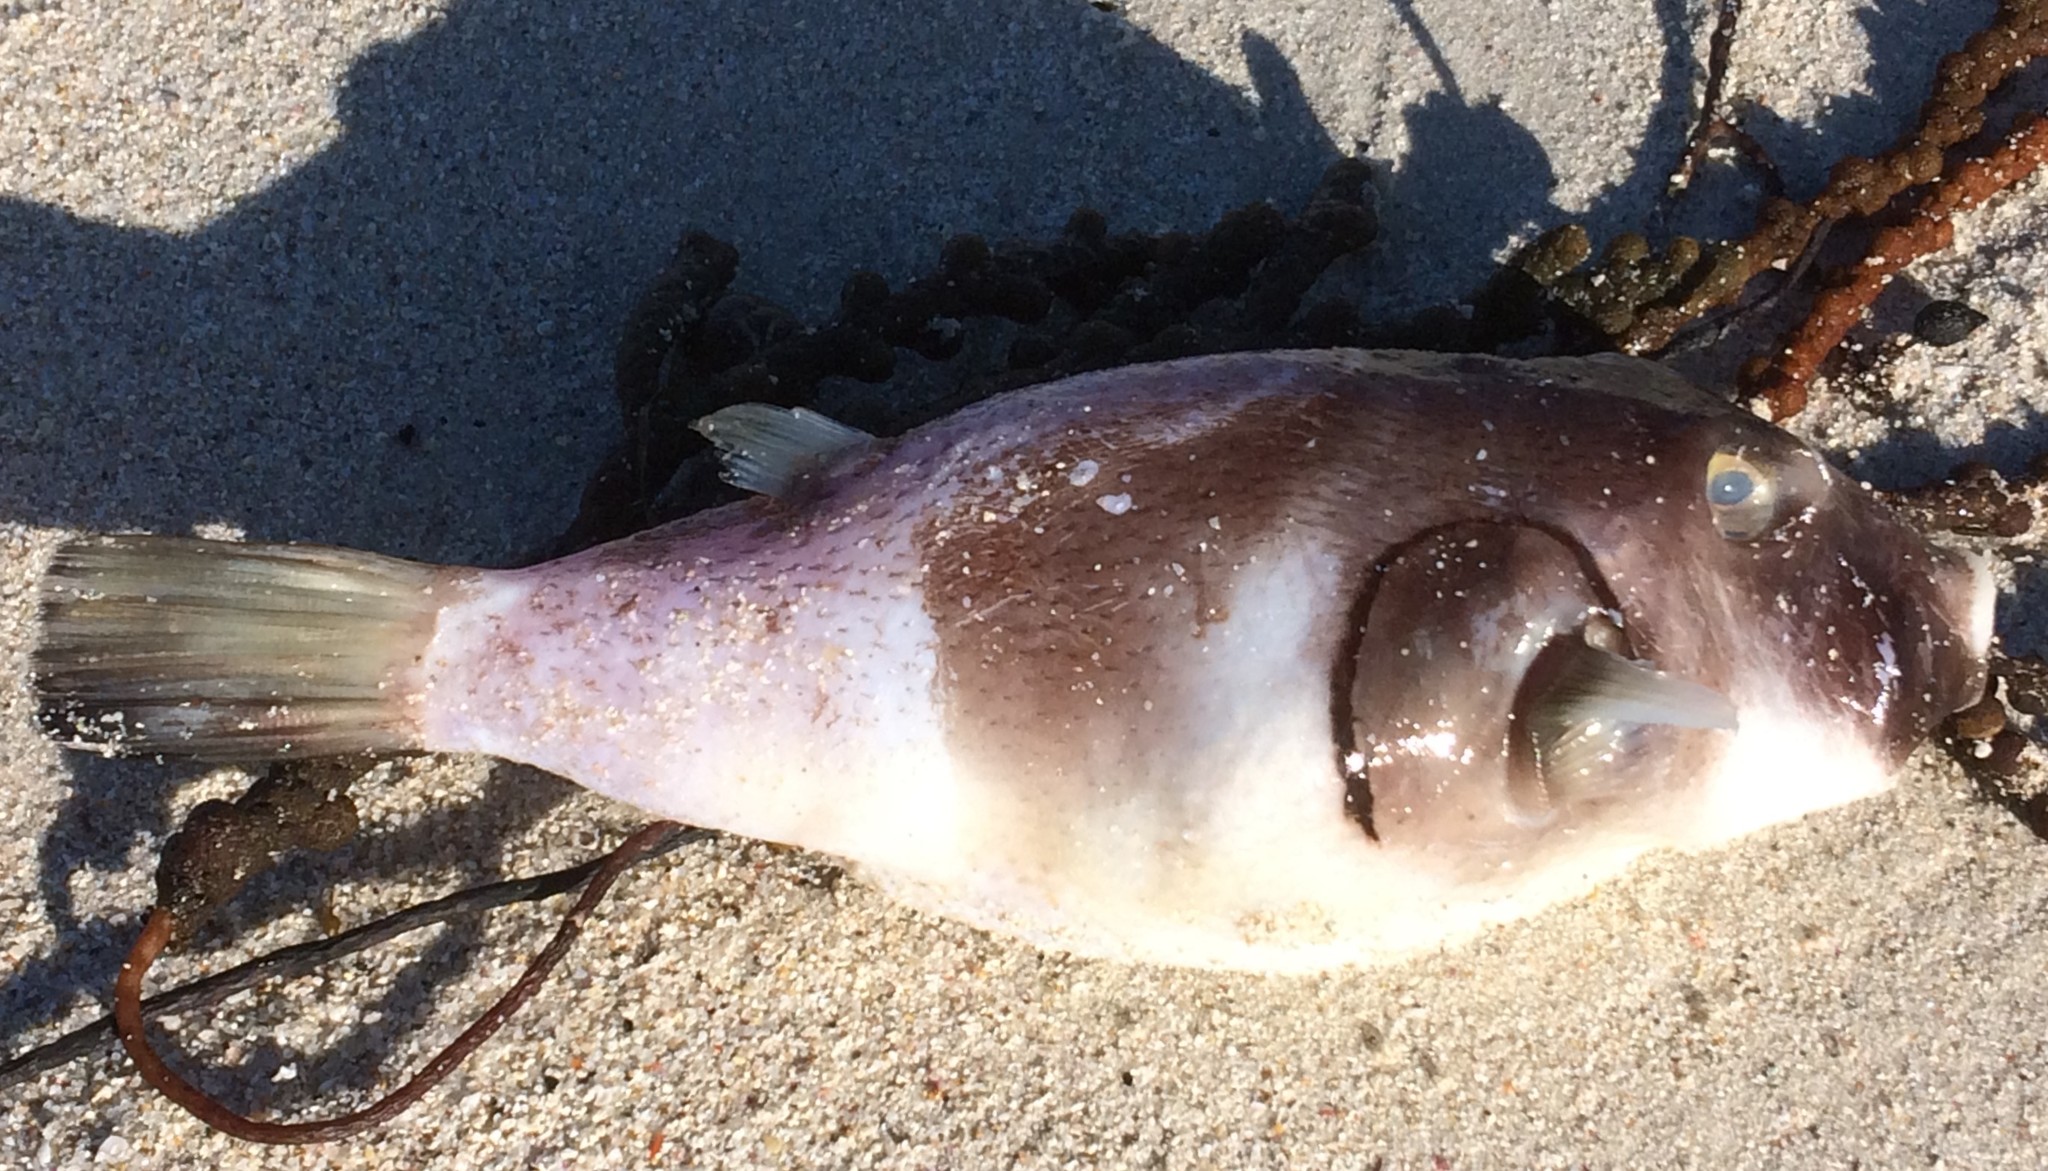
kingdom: Animalia
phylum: Chordata
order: Tetraodontiformes
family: Tetraodontidae
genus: Omegophora
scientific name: Omegophora armilla
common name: Ringed pufferfish
